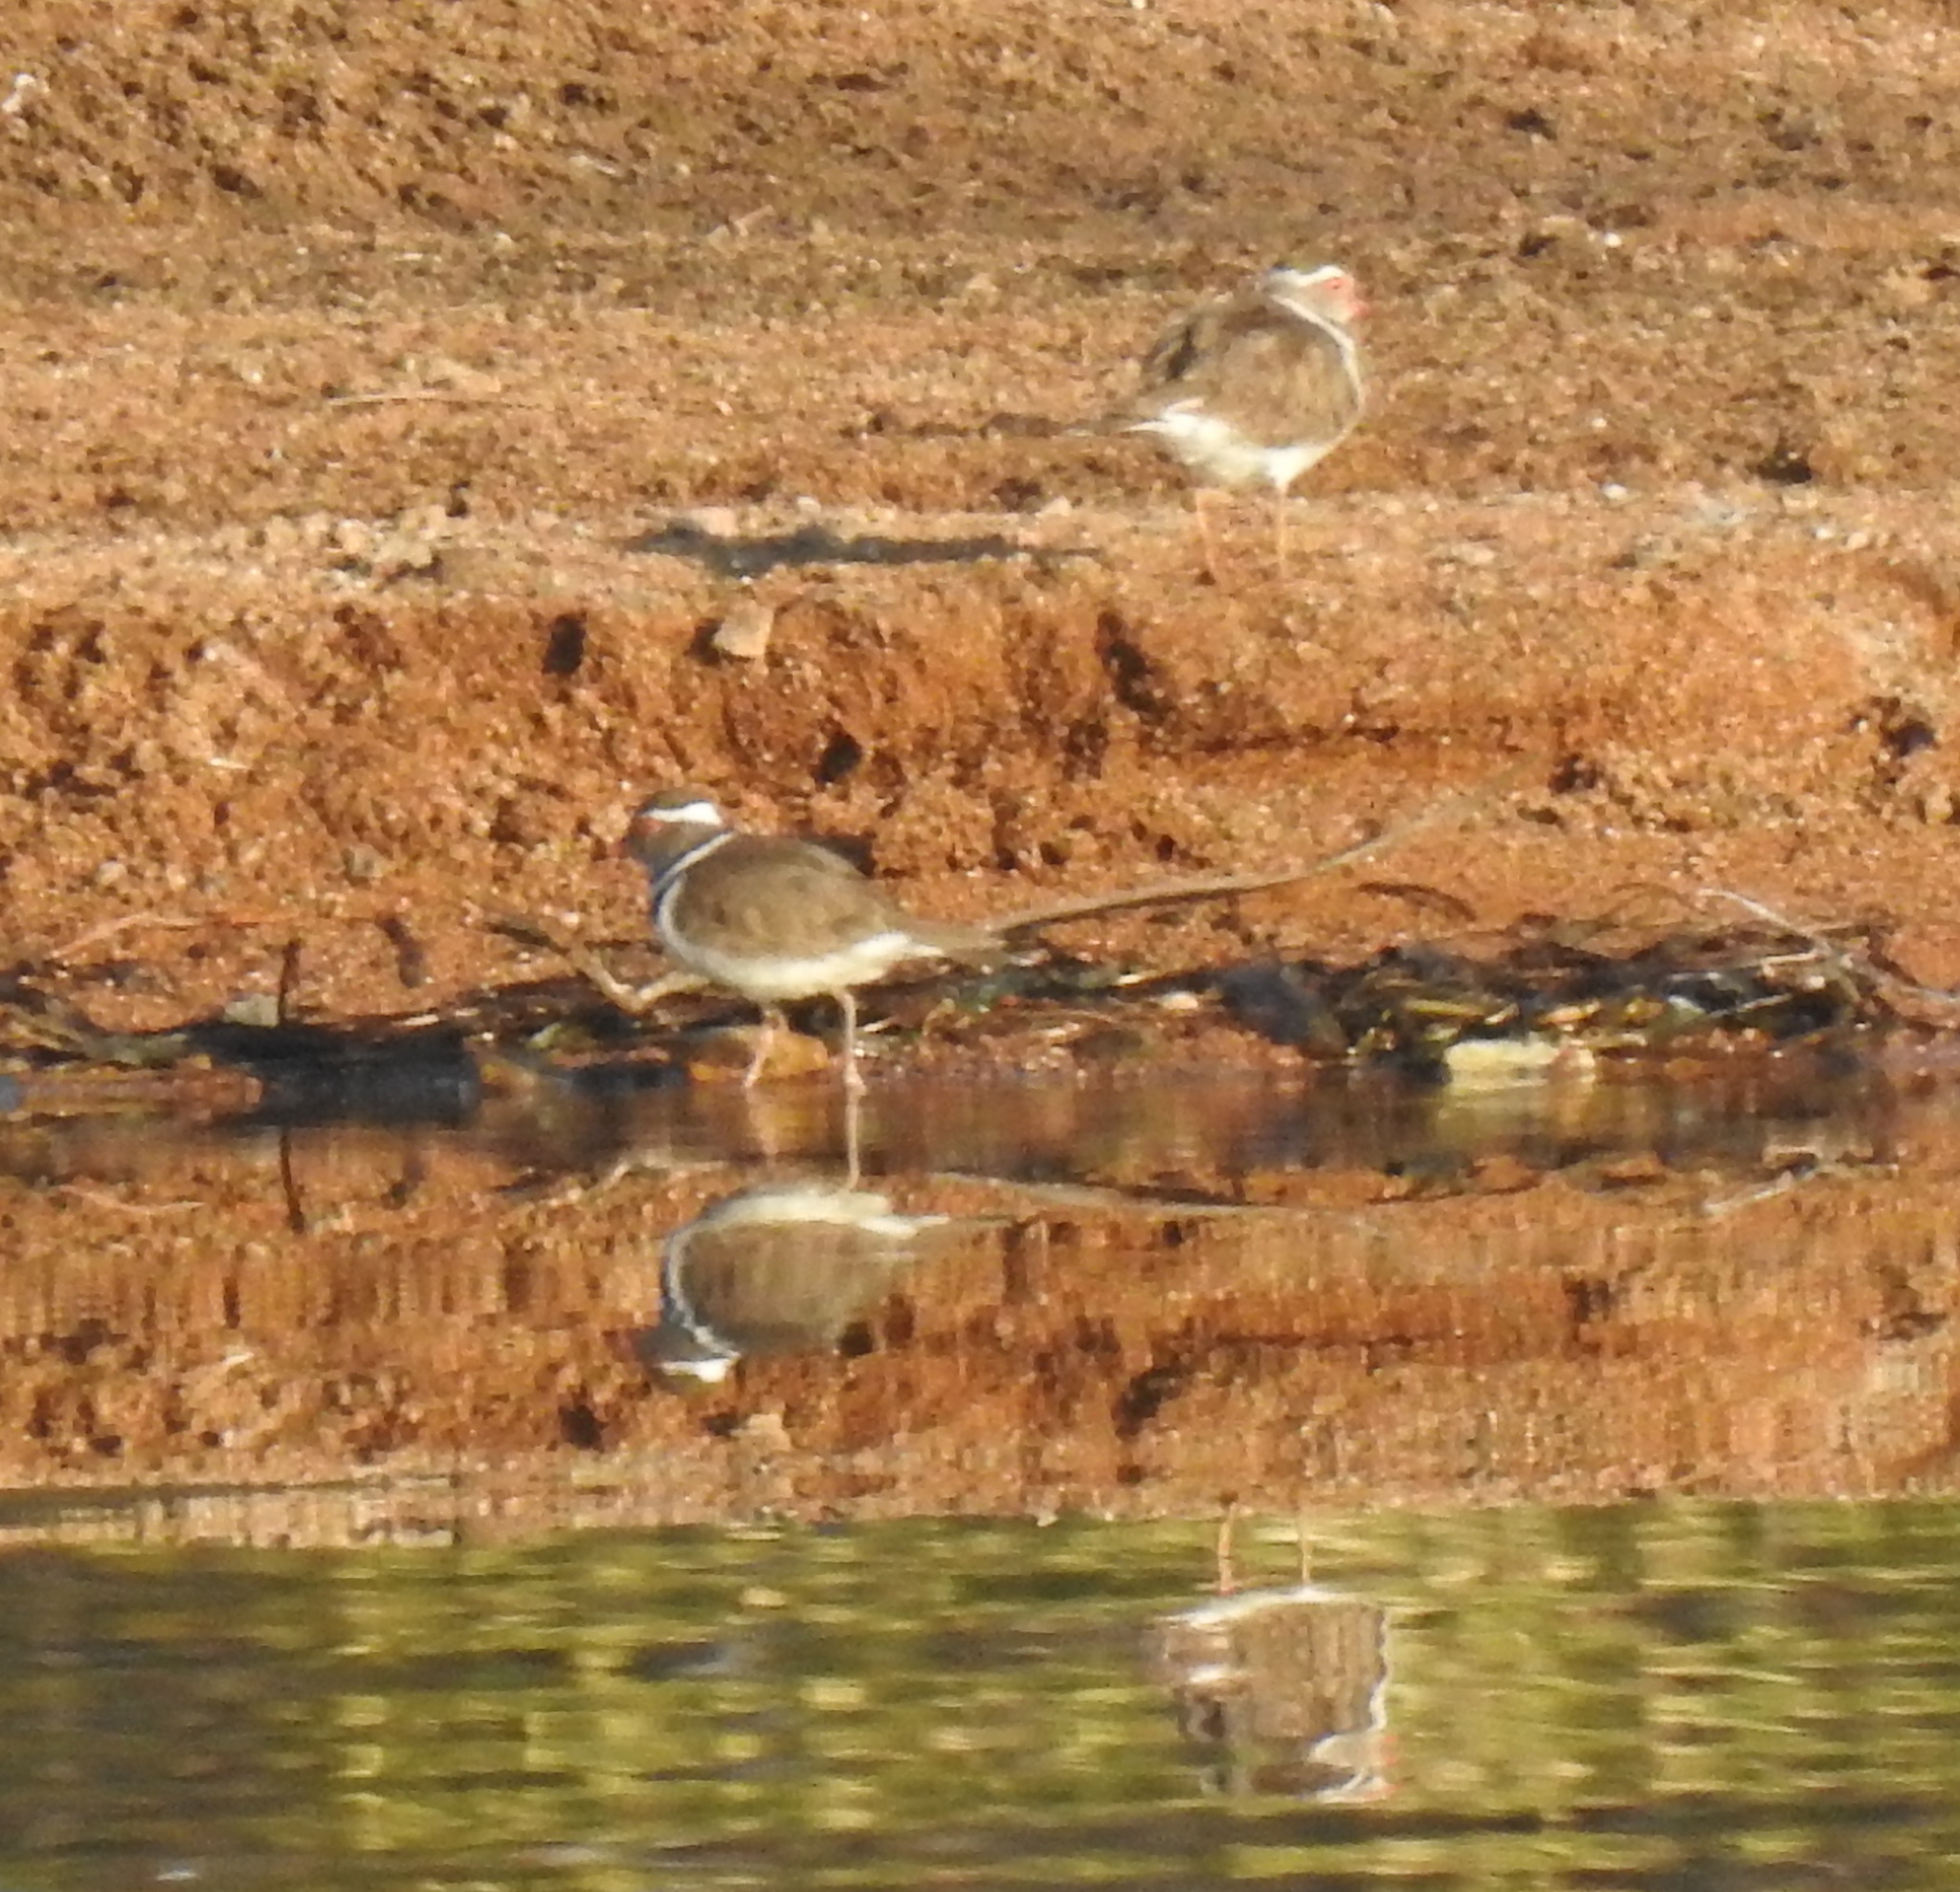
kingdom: Animalia
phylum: Chordata
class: Aves
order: Charadriiformes
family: Charadriidae
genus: Charadrius
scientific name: Charadrius tricollaris
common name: Three-banded plover
